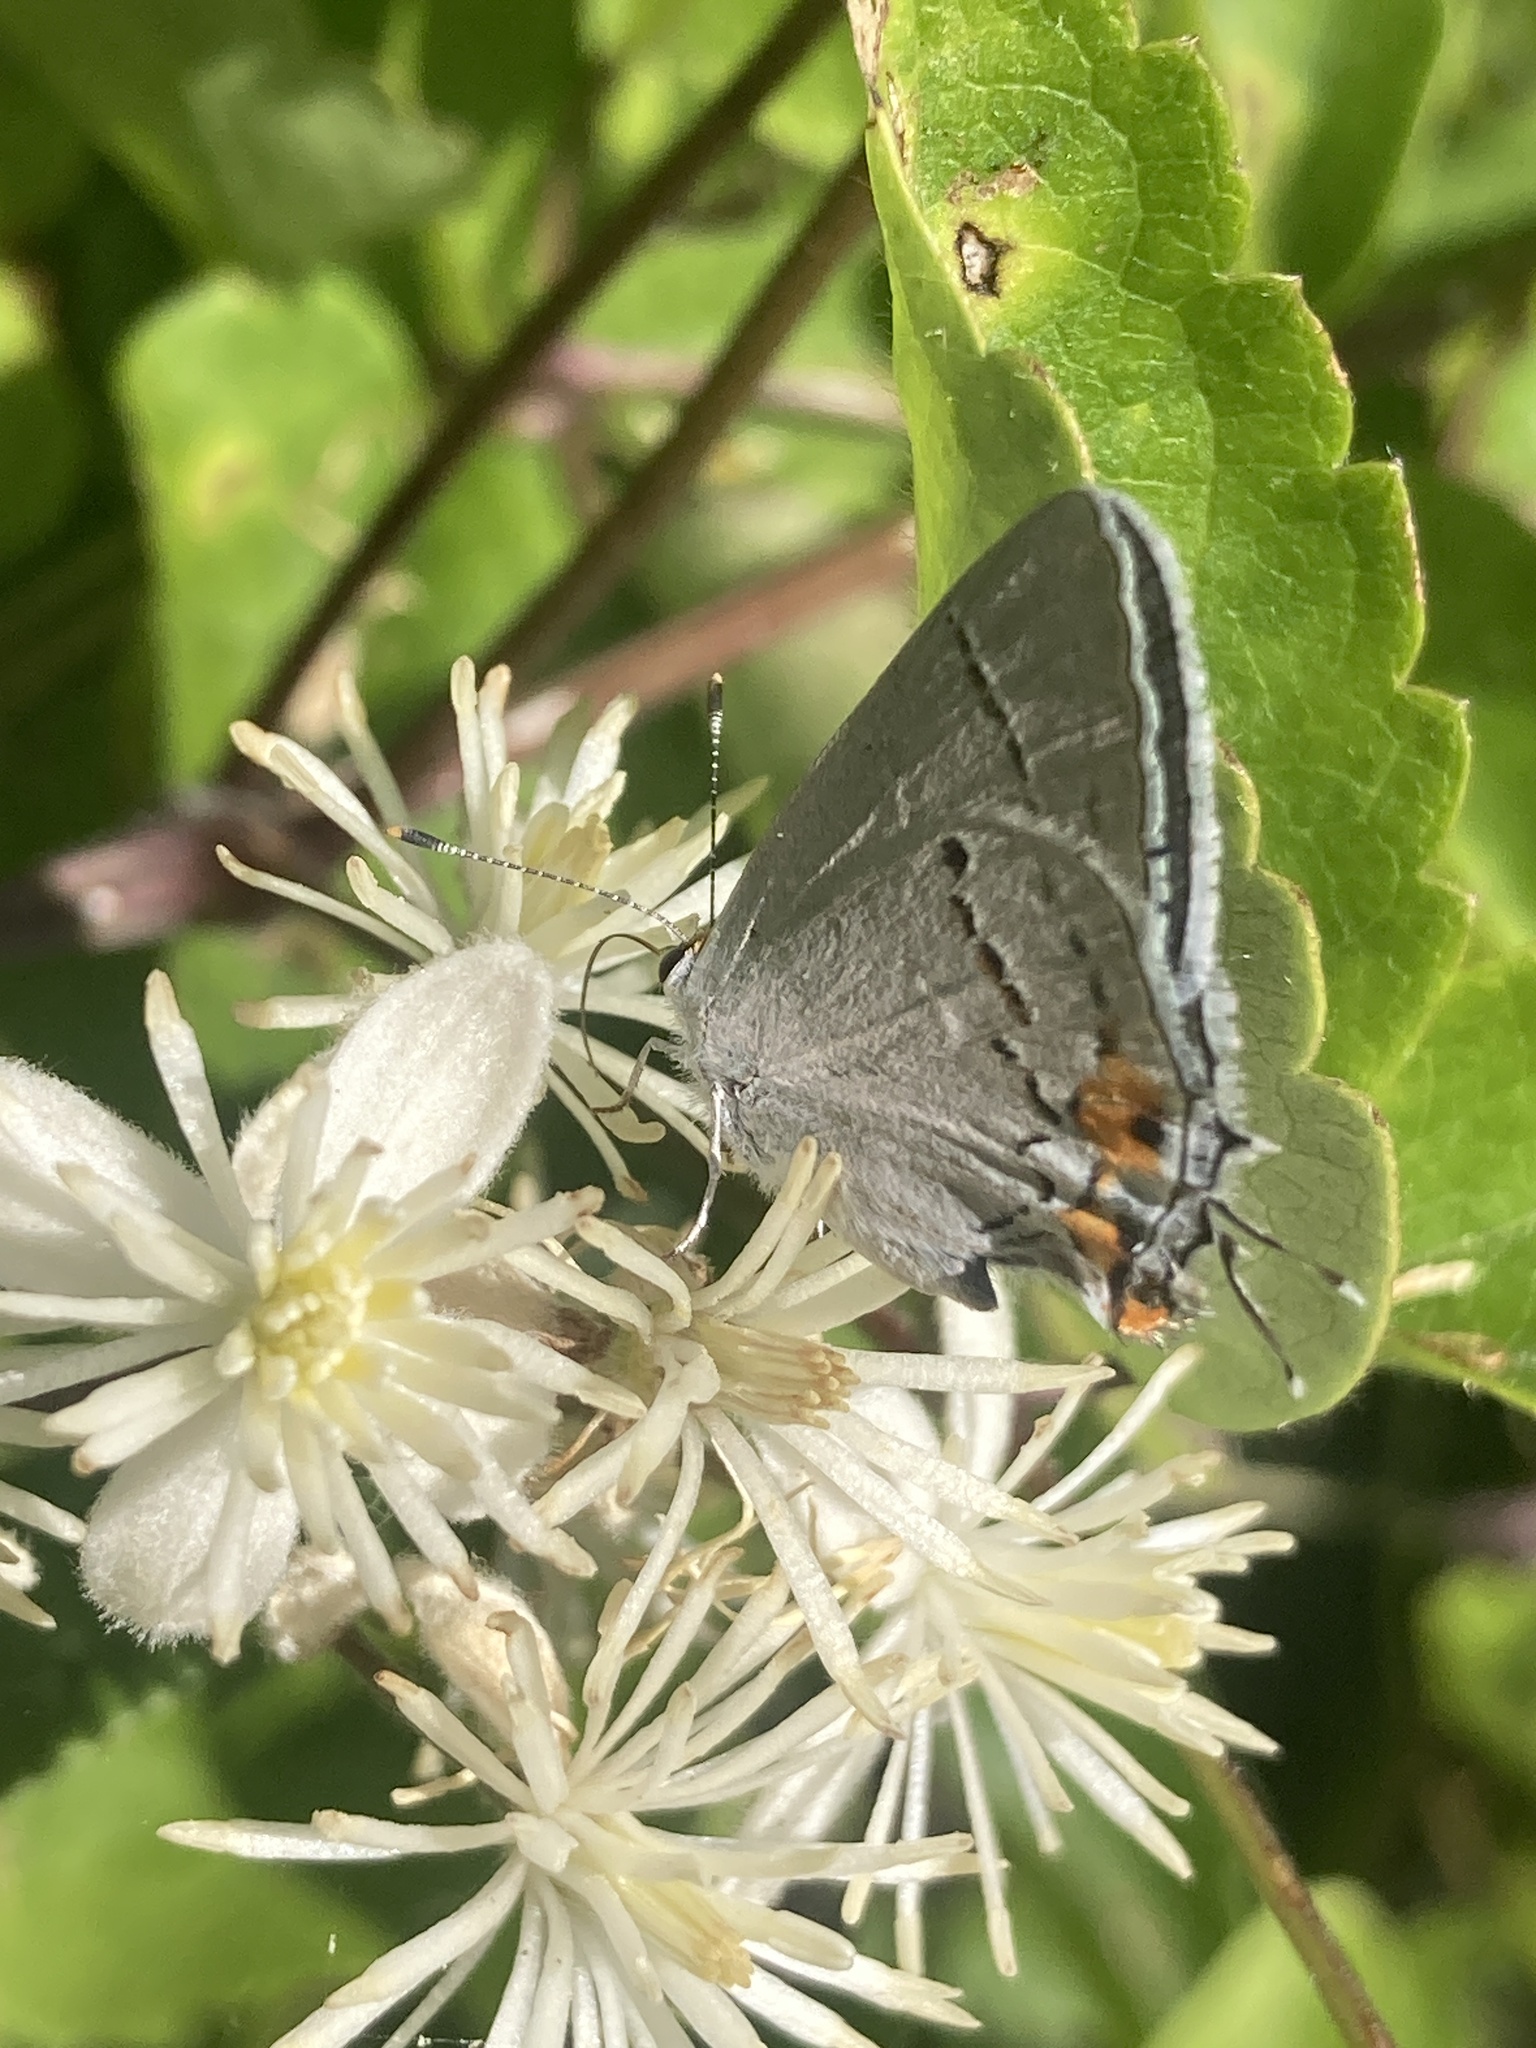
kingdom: Animalia
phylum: Arthropoda
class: Insecta
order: Lepidoptera
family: Lycaenidae
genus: Strymon
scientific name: Strymon melinus
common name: Gray hairstreak
